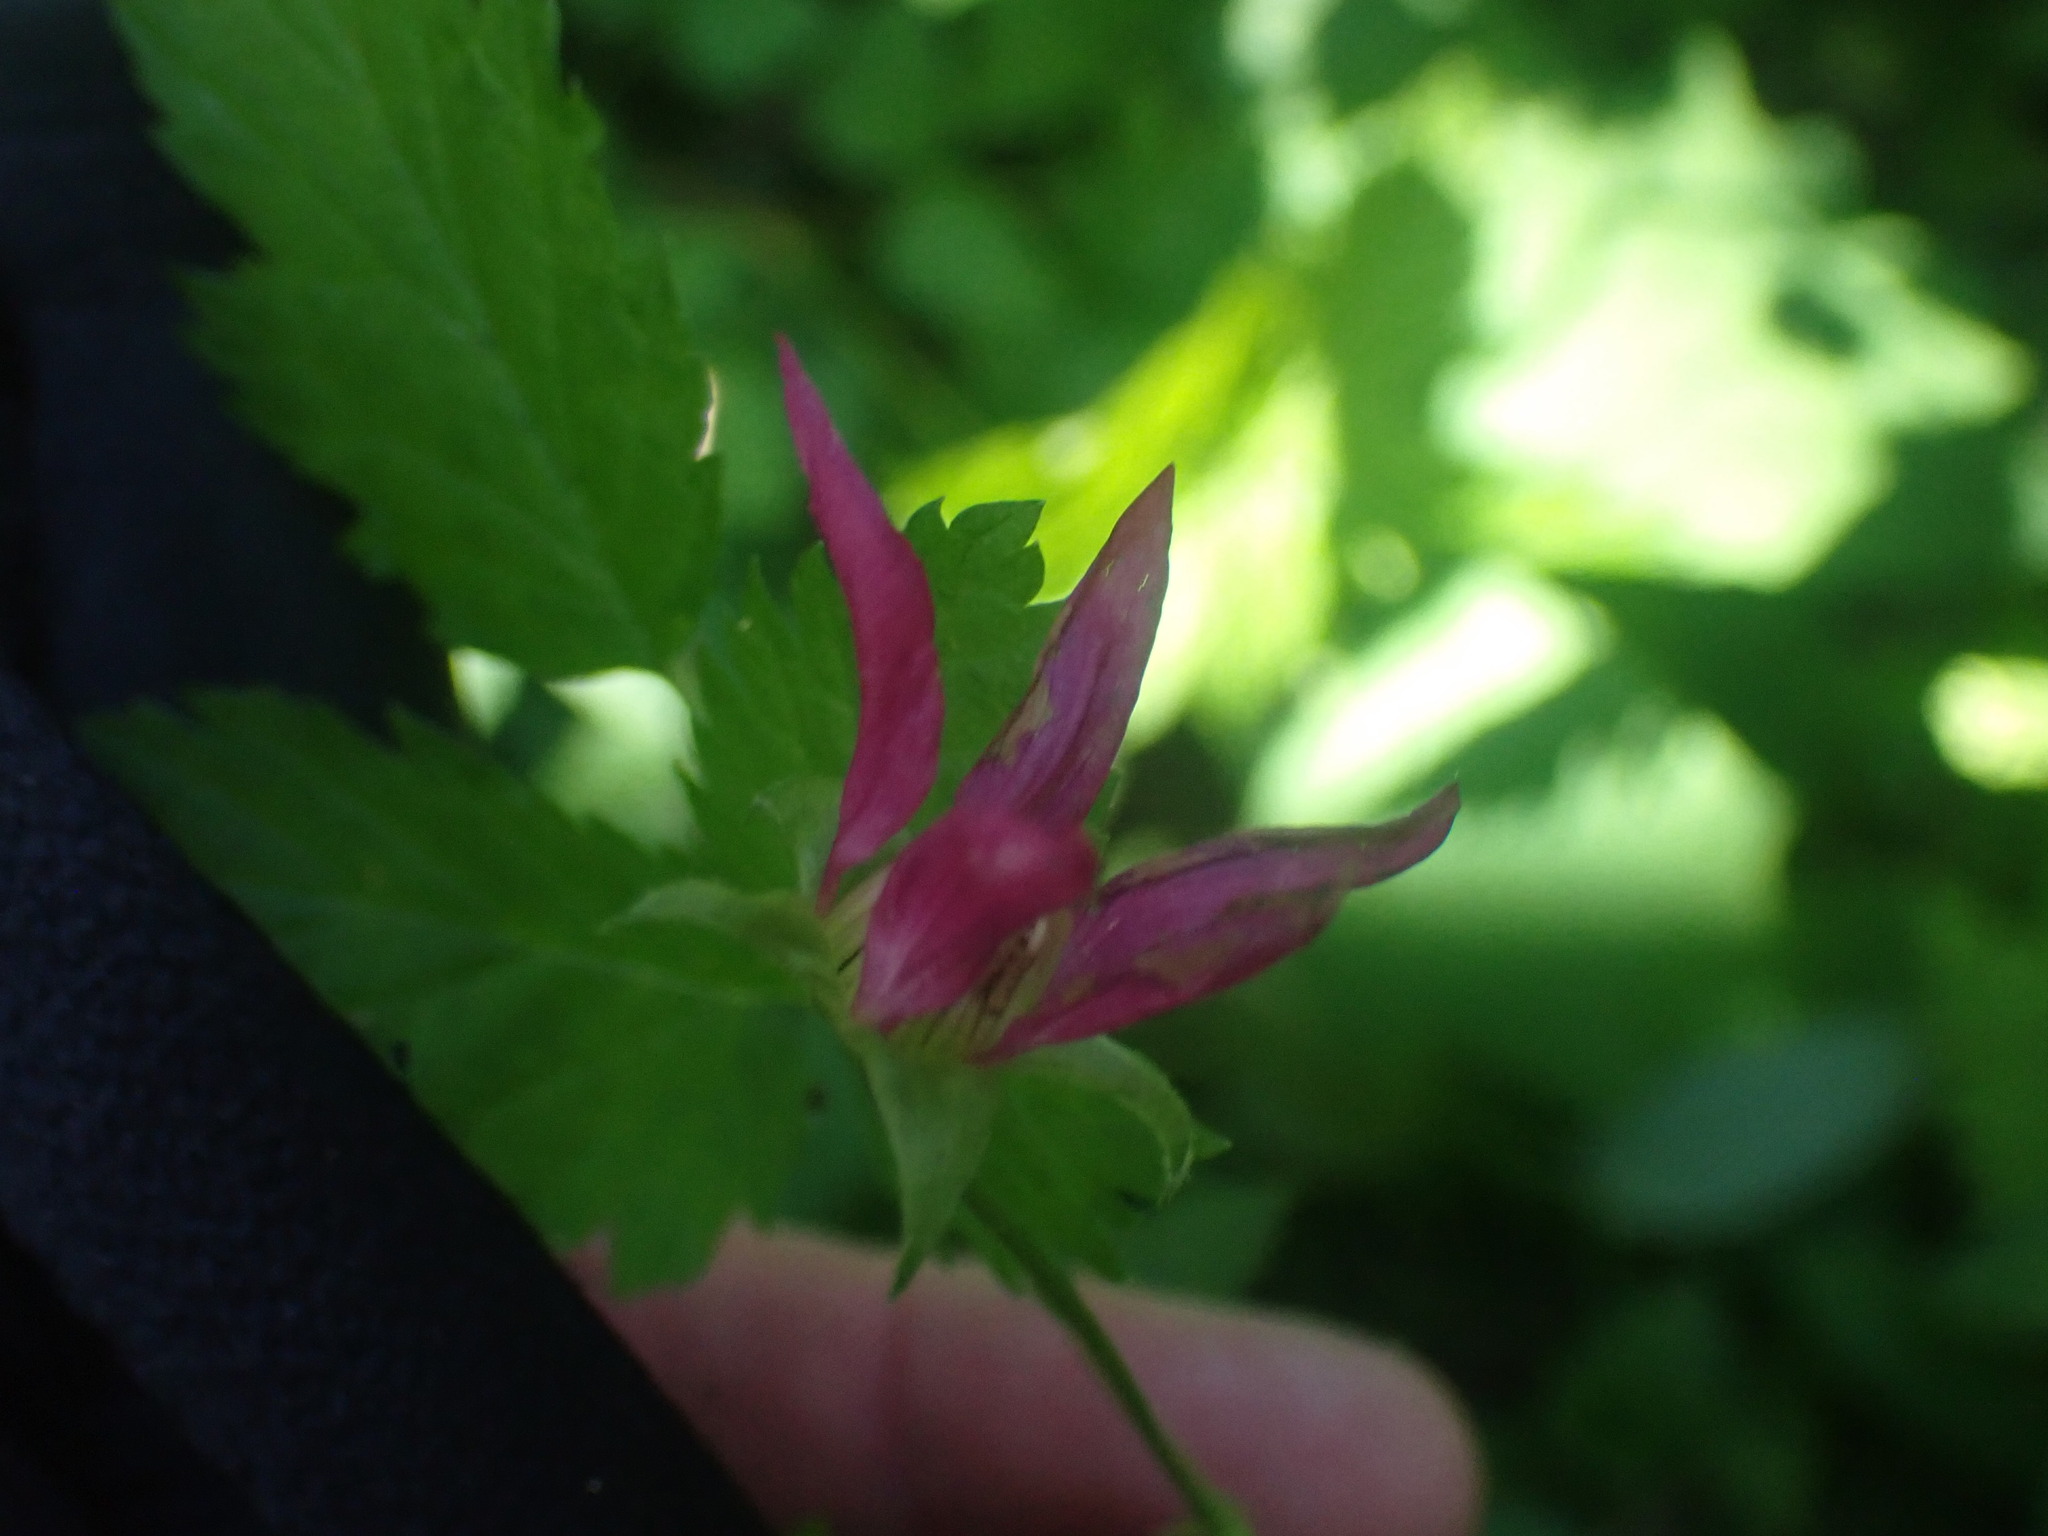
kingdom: Plantae
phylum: Tracheophyta
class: Magnoliopsida
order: Rosales
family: Rosaceae
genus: Rubus
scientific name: Rubus spectabilis
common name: Salmonberry
